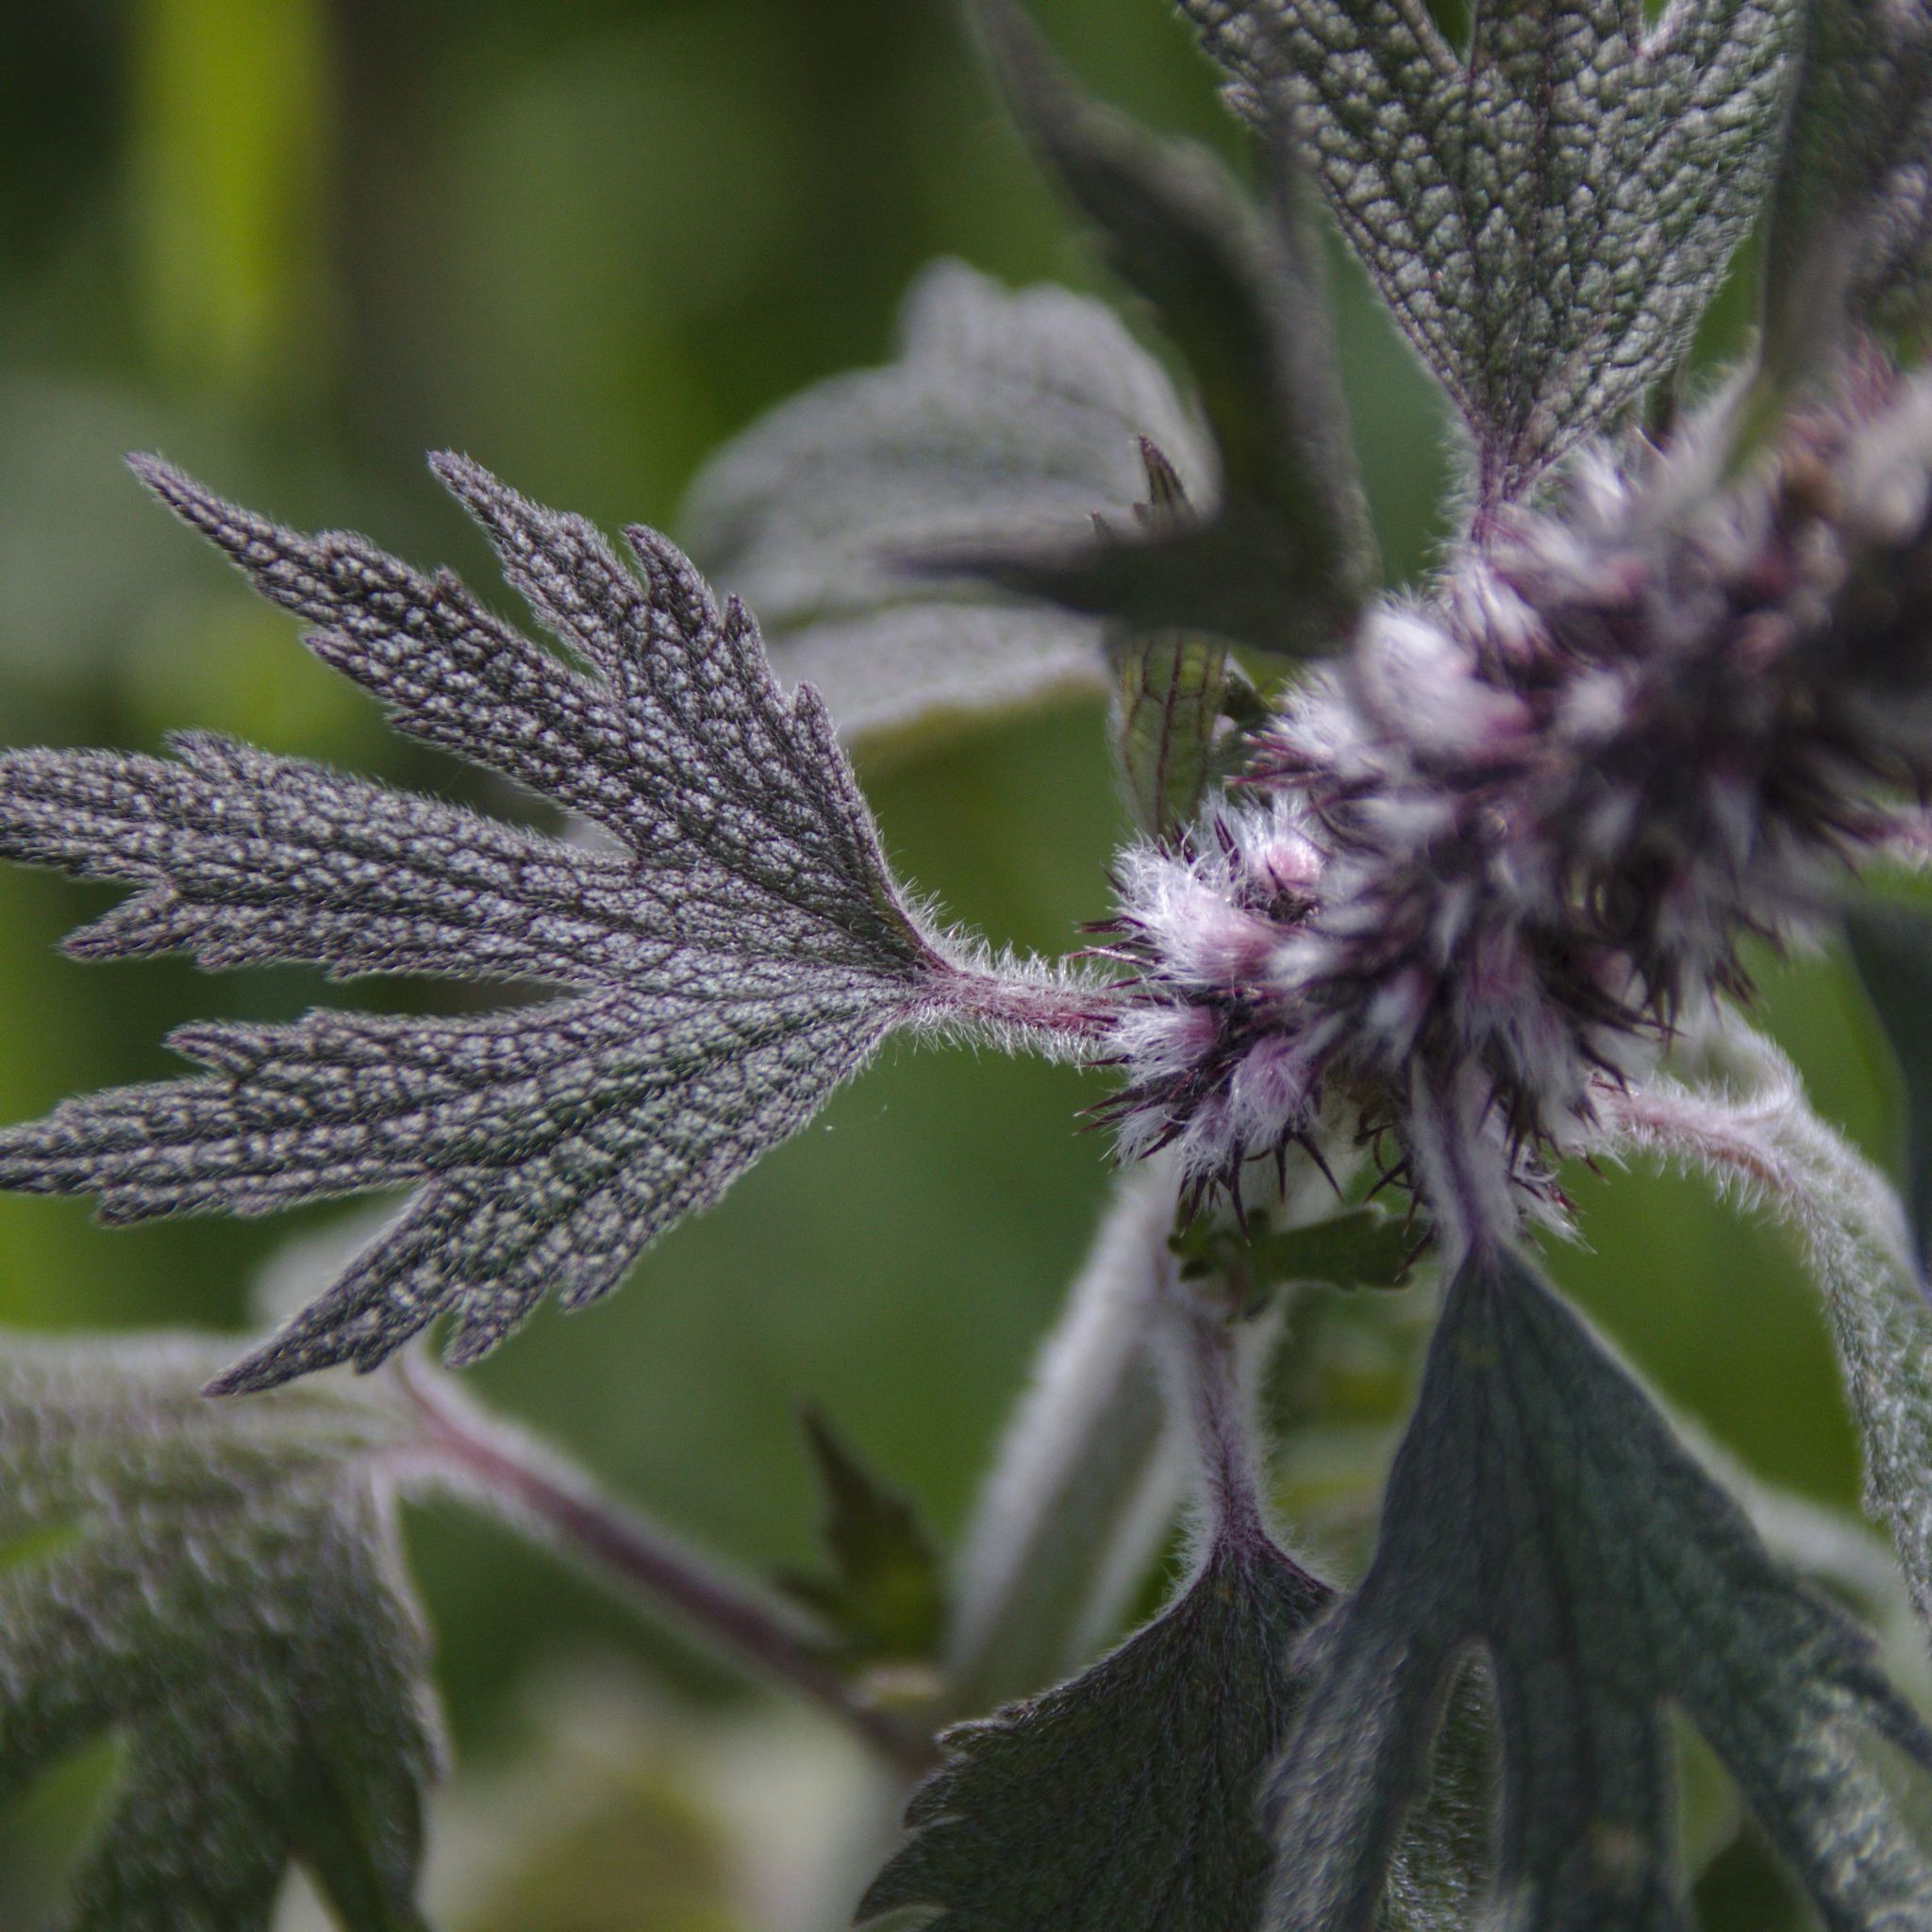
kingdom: Plantae
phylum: Tracheophyta
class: Magnoliopsida
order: Lamiales
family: Lamiaceae
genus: Leonurus
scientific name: Leonurus quinquelobatus
